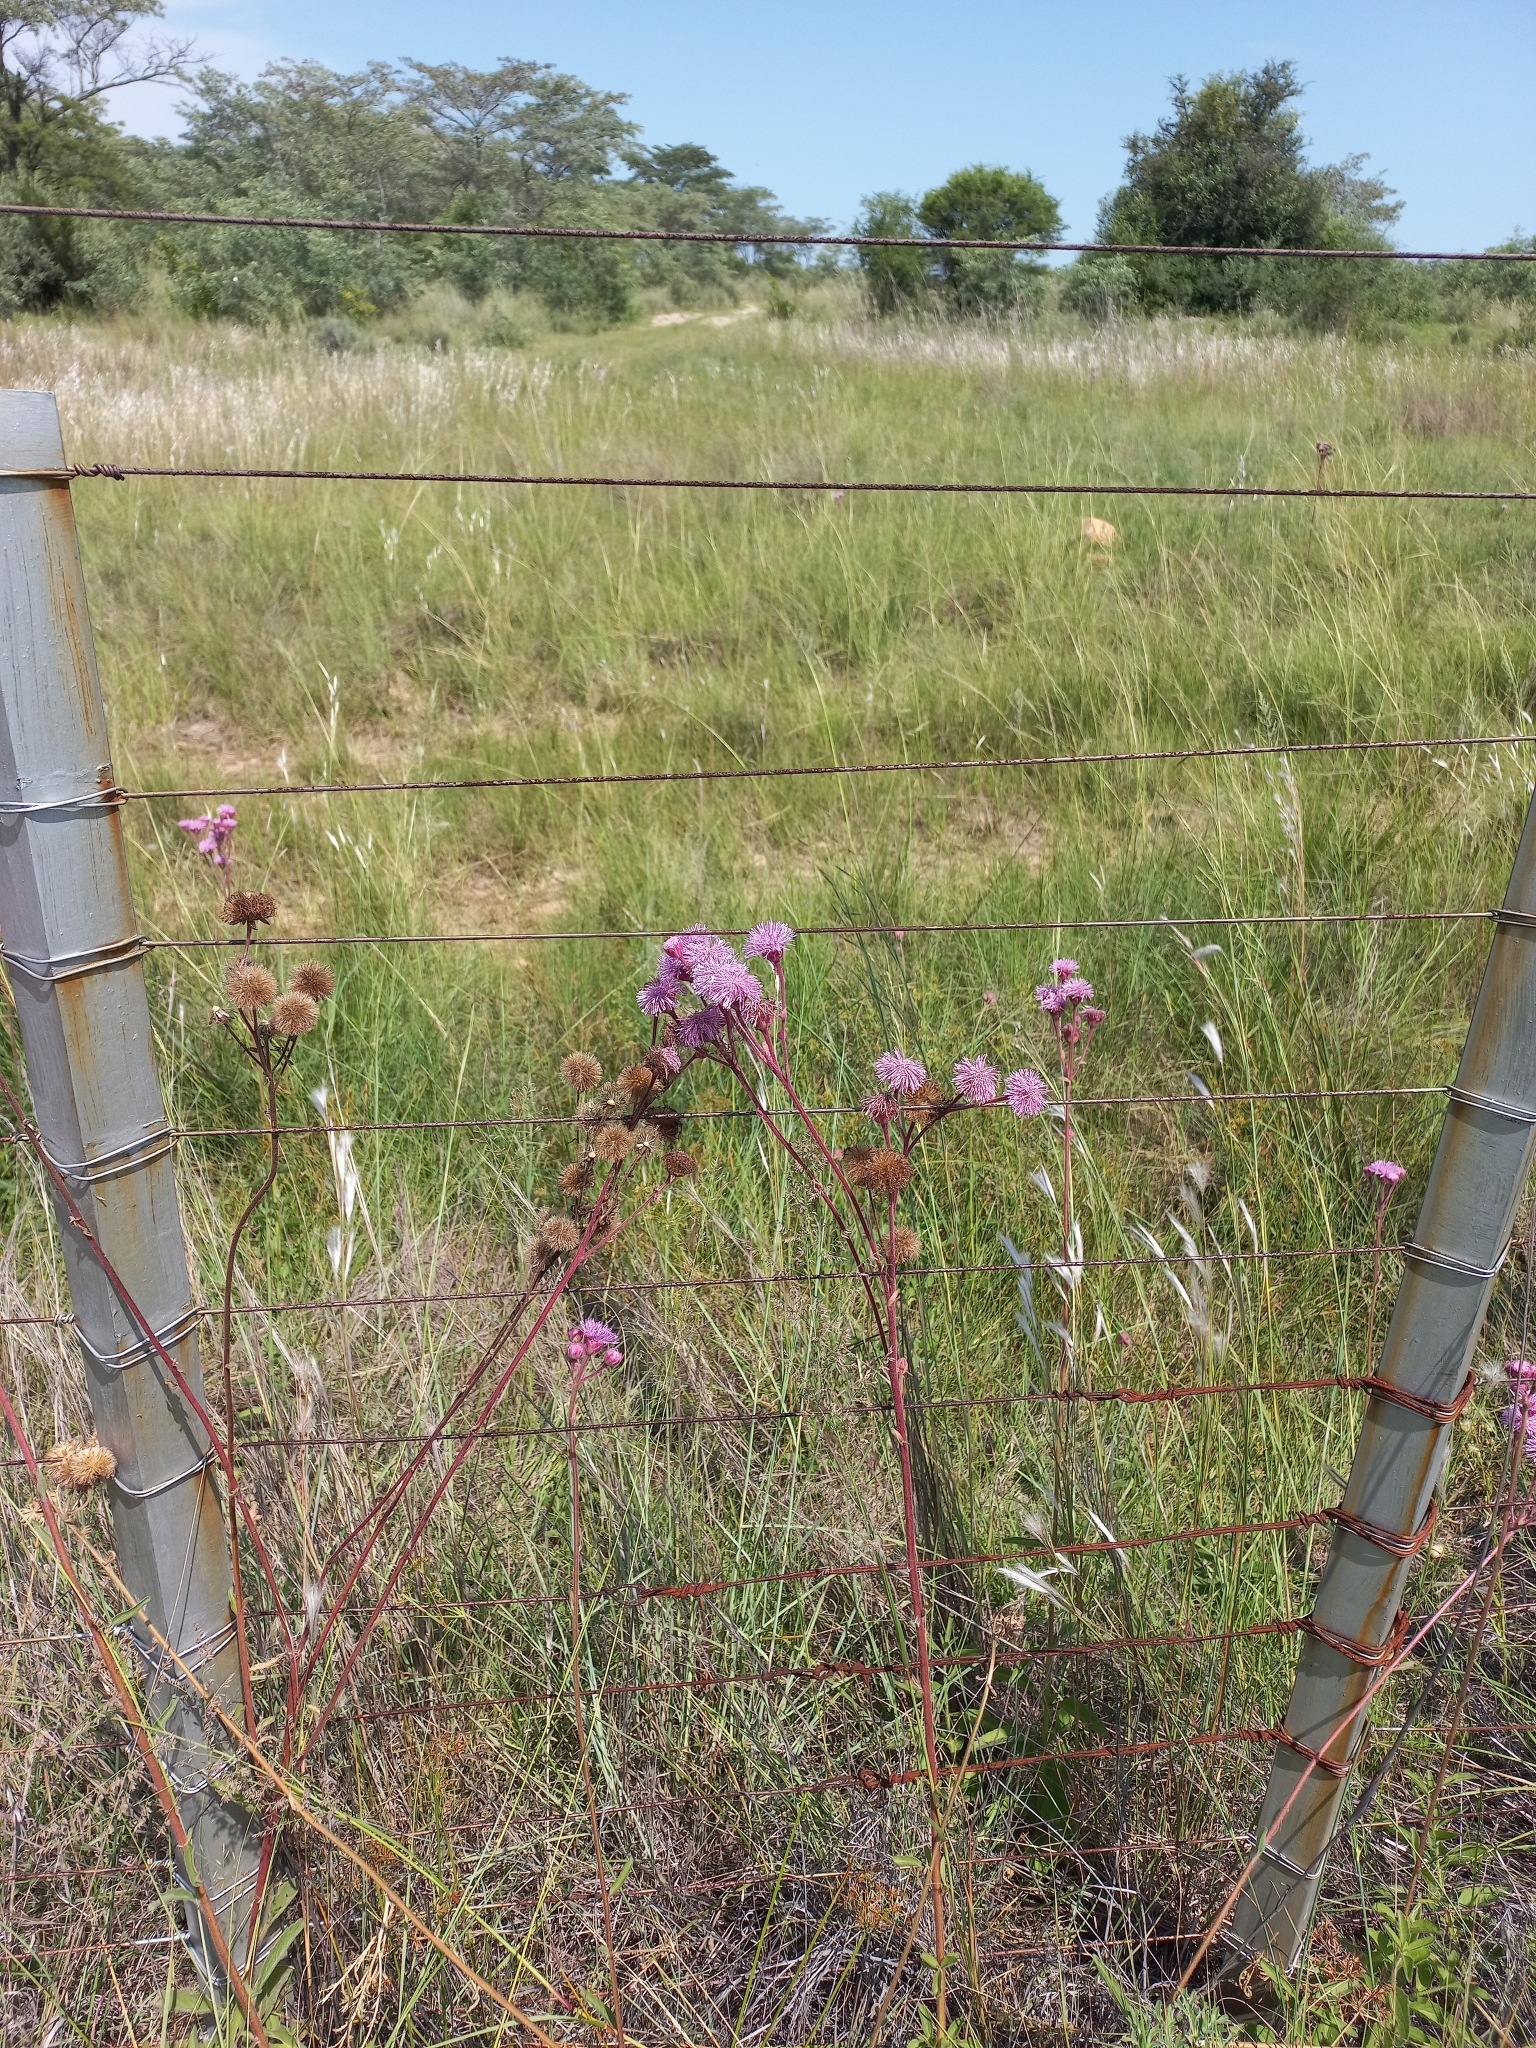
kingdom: Plantae
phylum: Tracheophyta
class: Magnoliopsida
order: Asterales
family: Asteraceae
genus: Campuloclinium
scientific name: Campuloclinium macrocephalum
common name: Pompomweed
